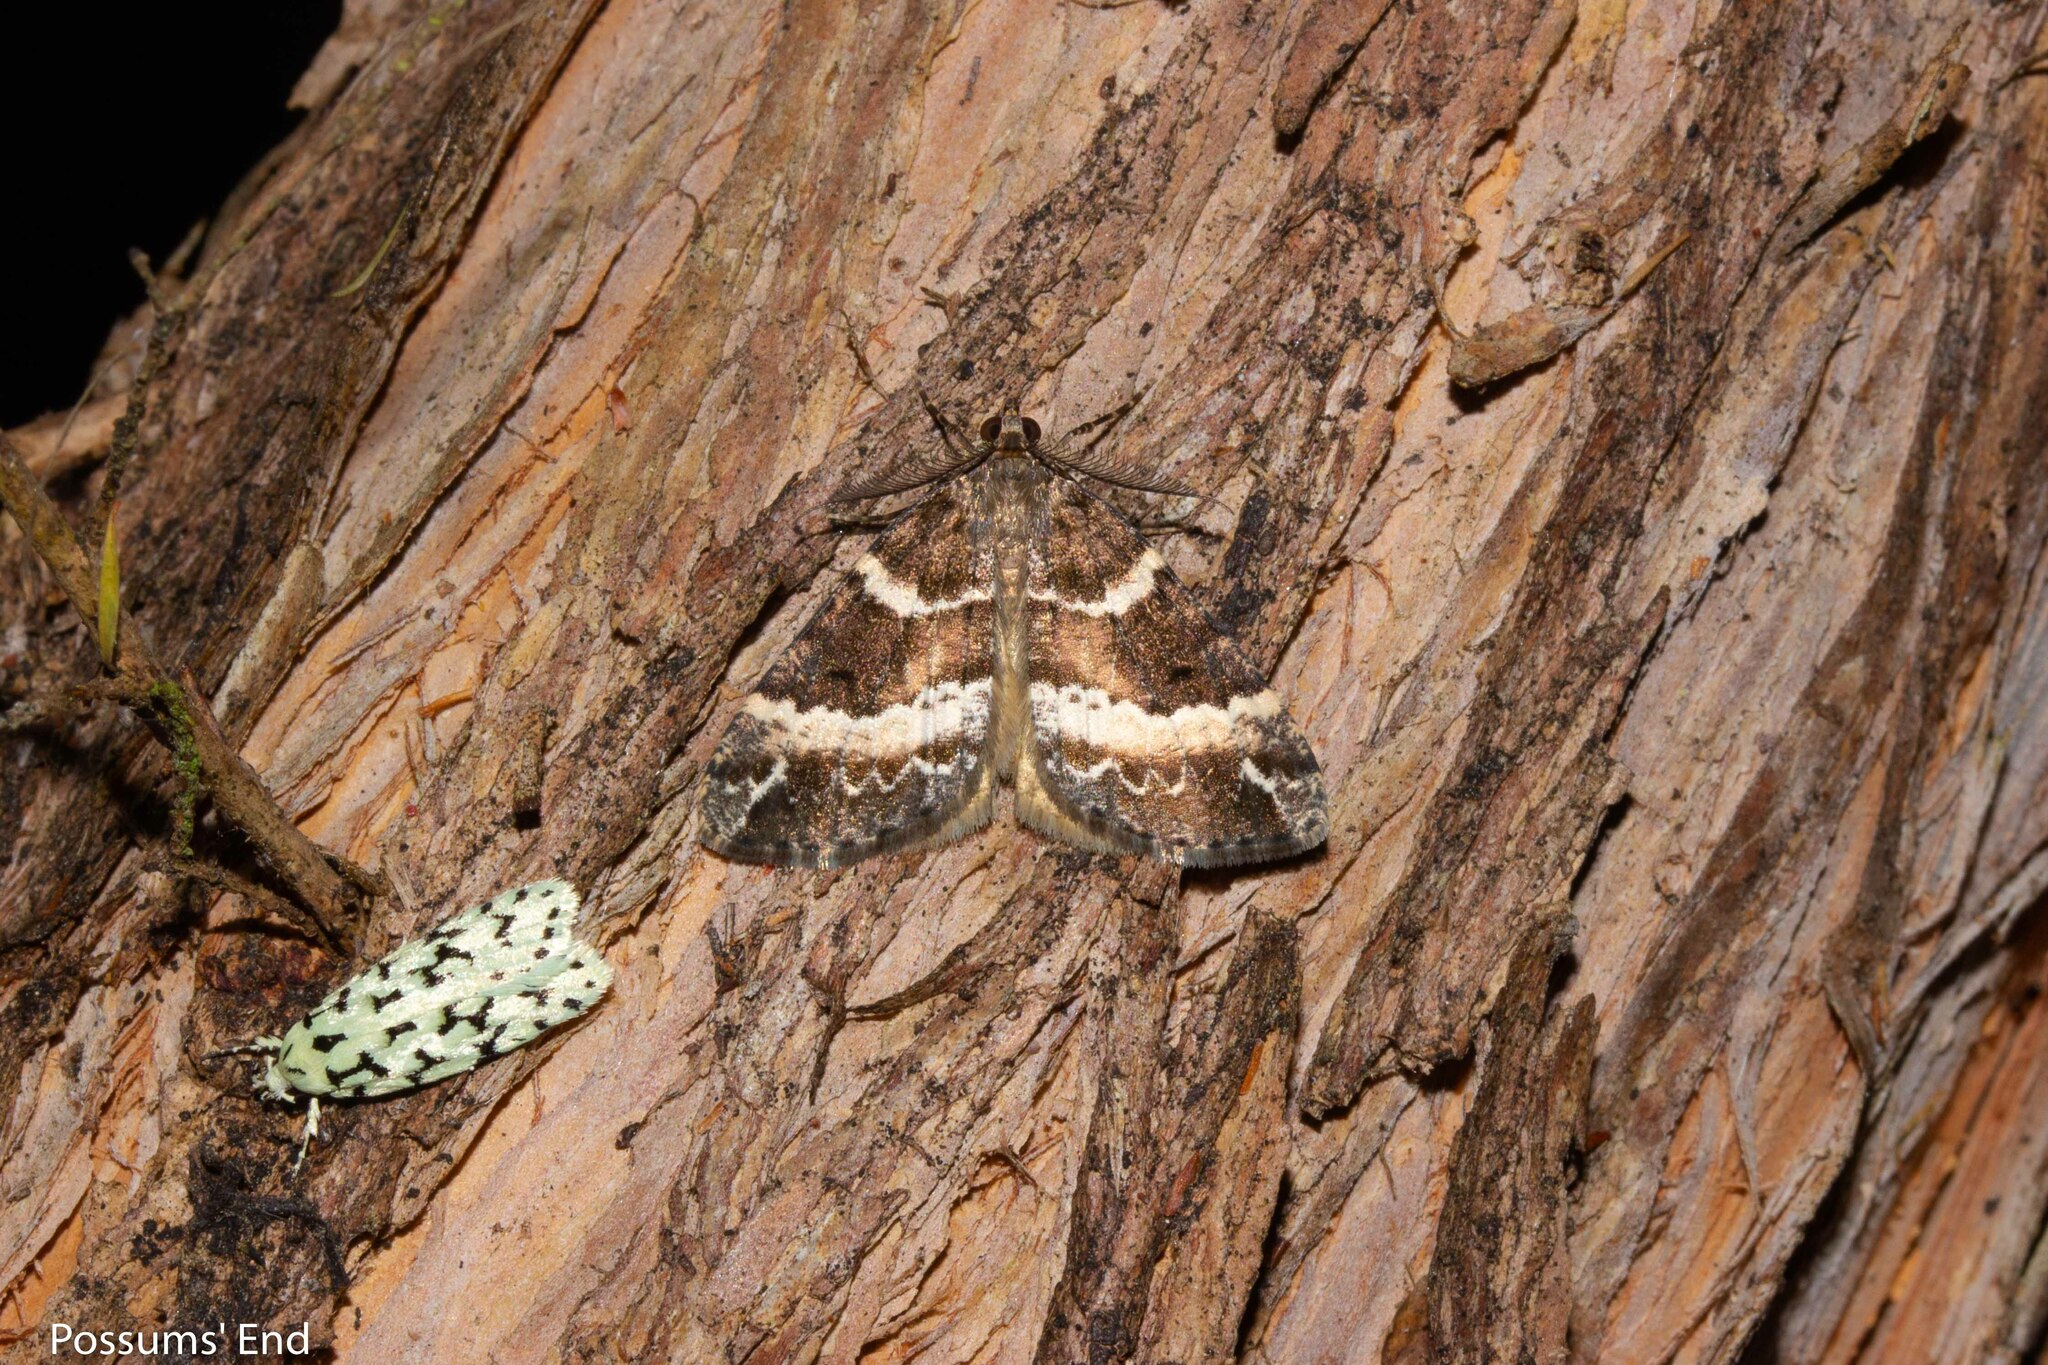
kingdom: Animalia
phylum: Arthropoda
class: Insecta
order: Lepidoptera
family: Geometridae
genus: Pseudocoremia
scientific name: Pseudocoremia
